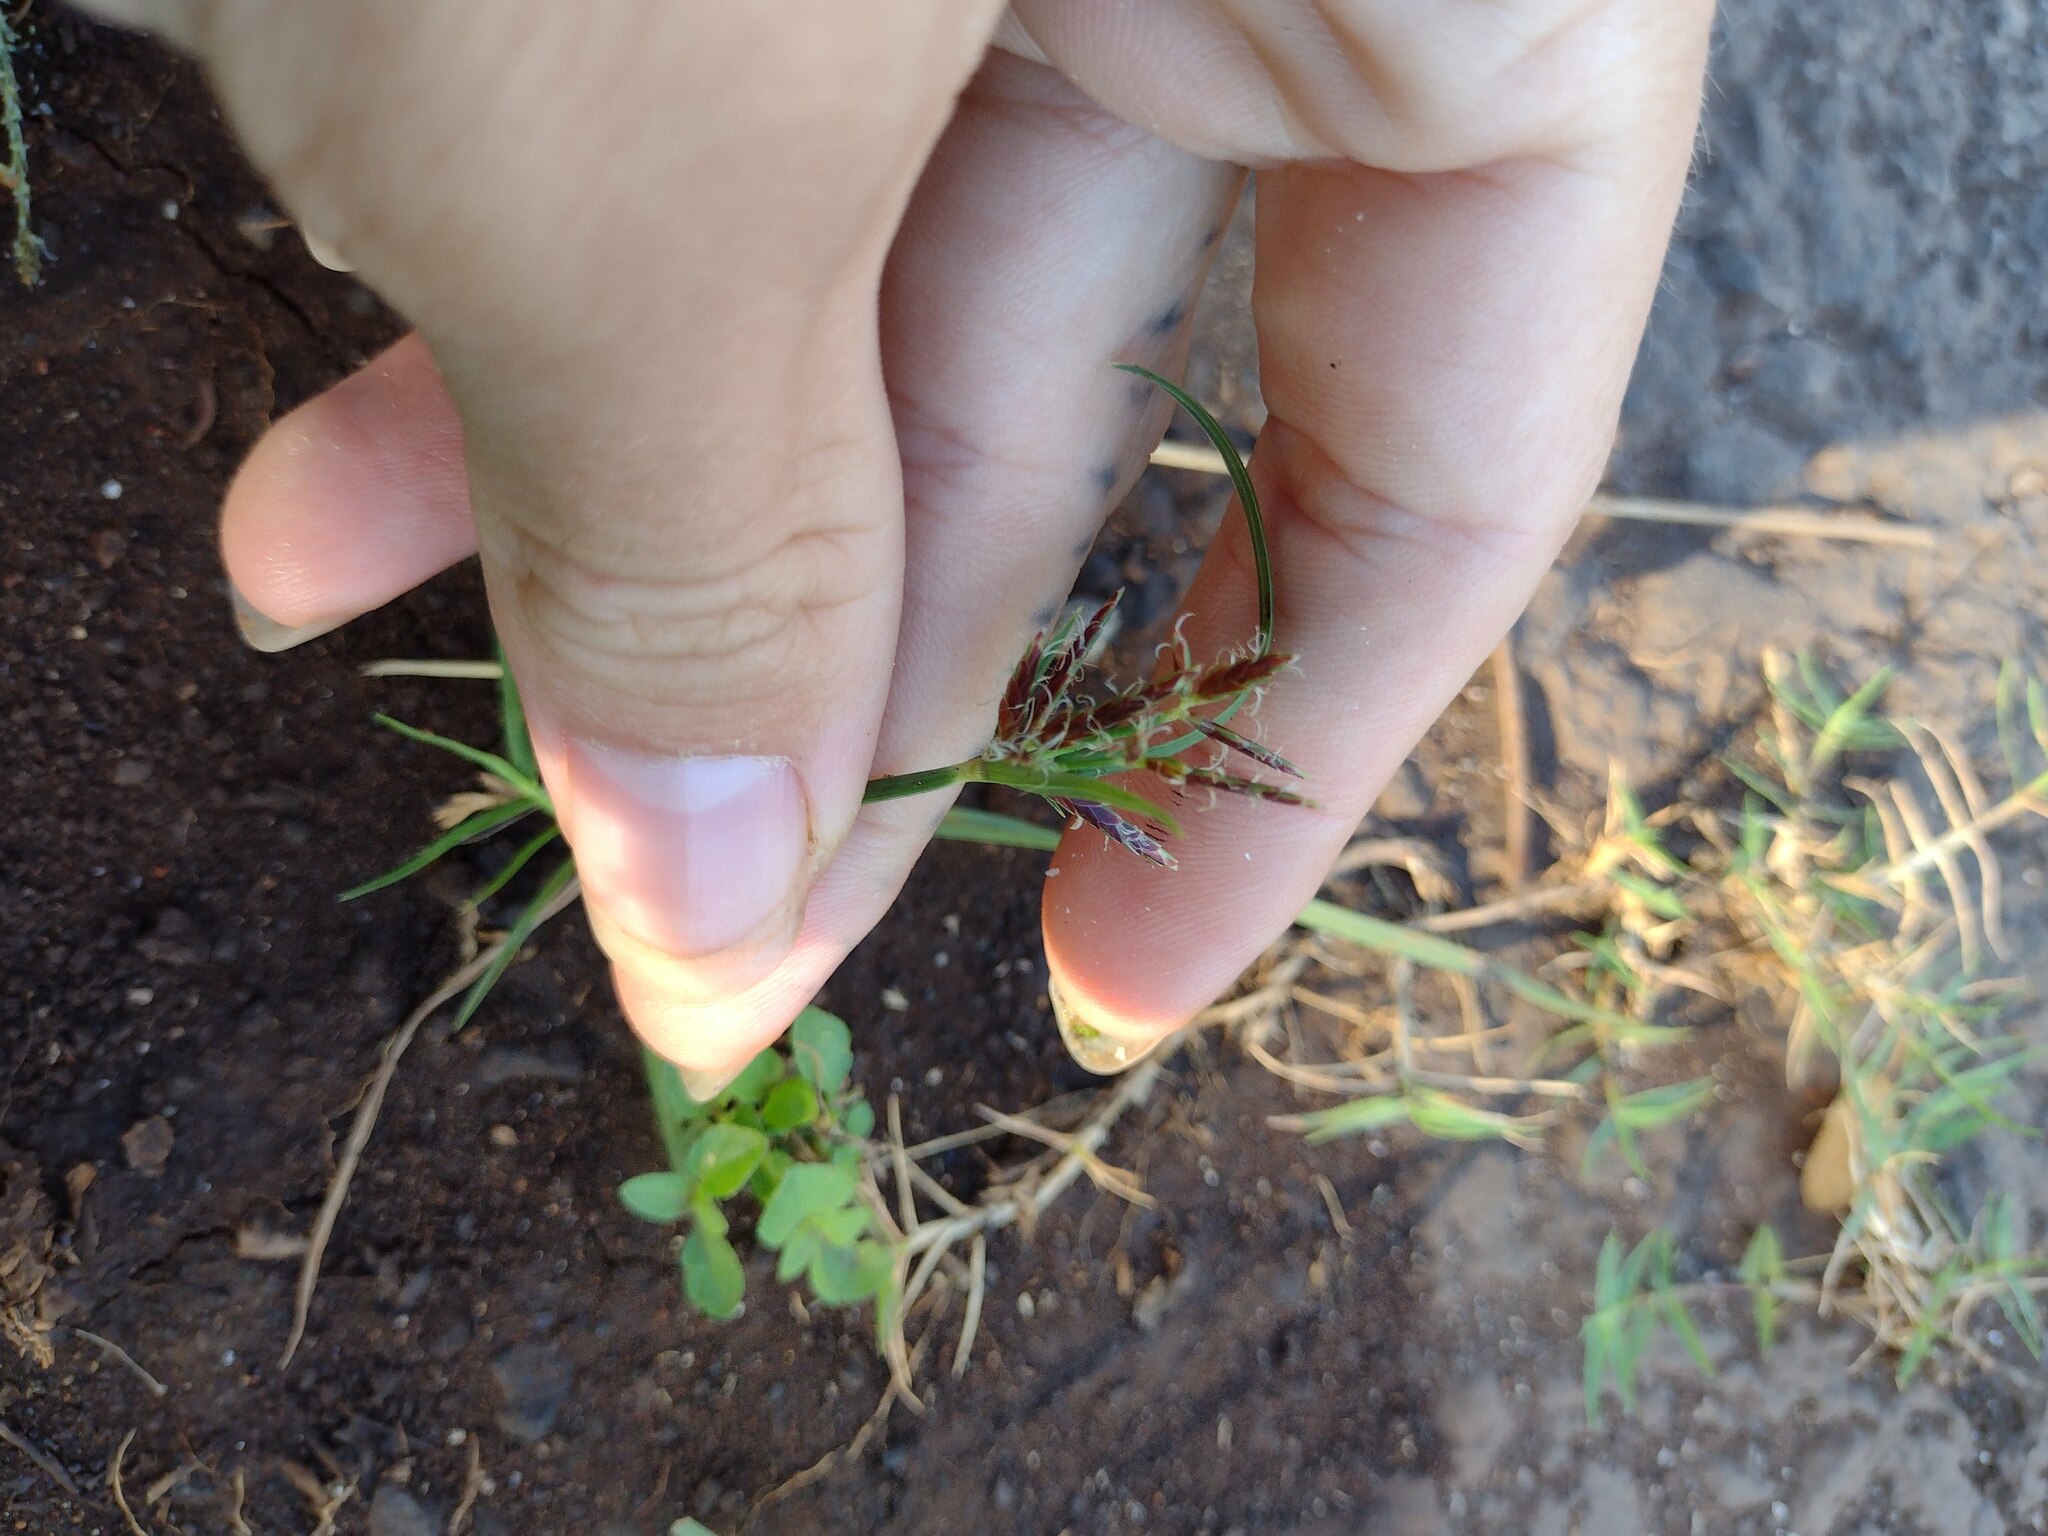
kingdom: Plantae
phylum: Tracheophyta
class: Liliopsida
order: Poales
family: Cyperaceae
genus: Cyperus
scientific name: Cyperus rotundus
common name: Nutgrass
